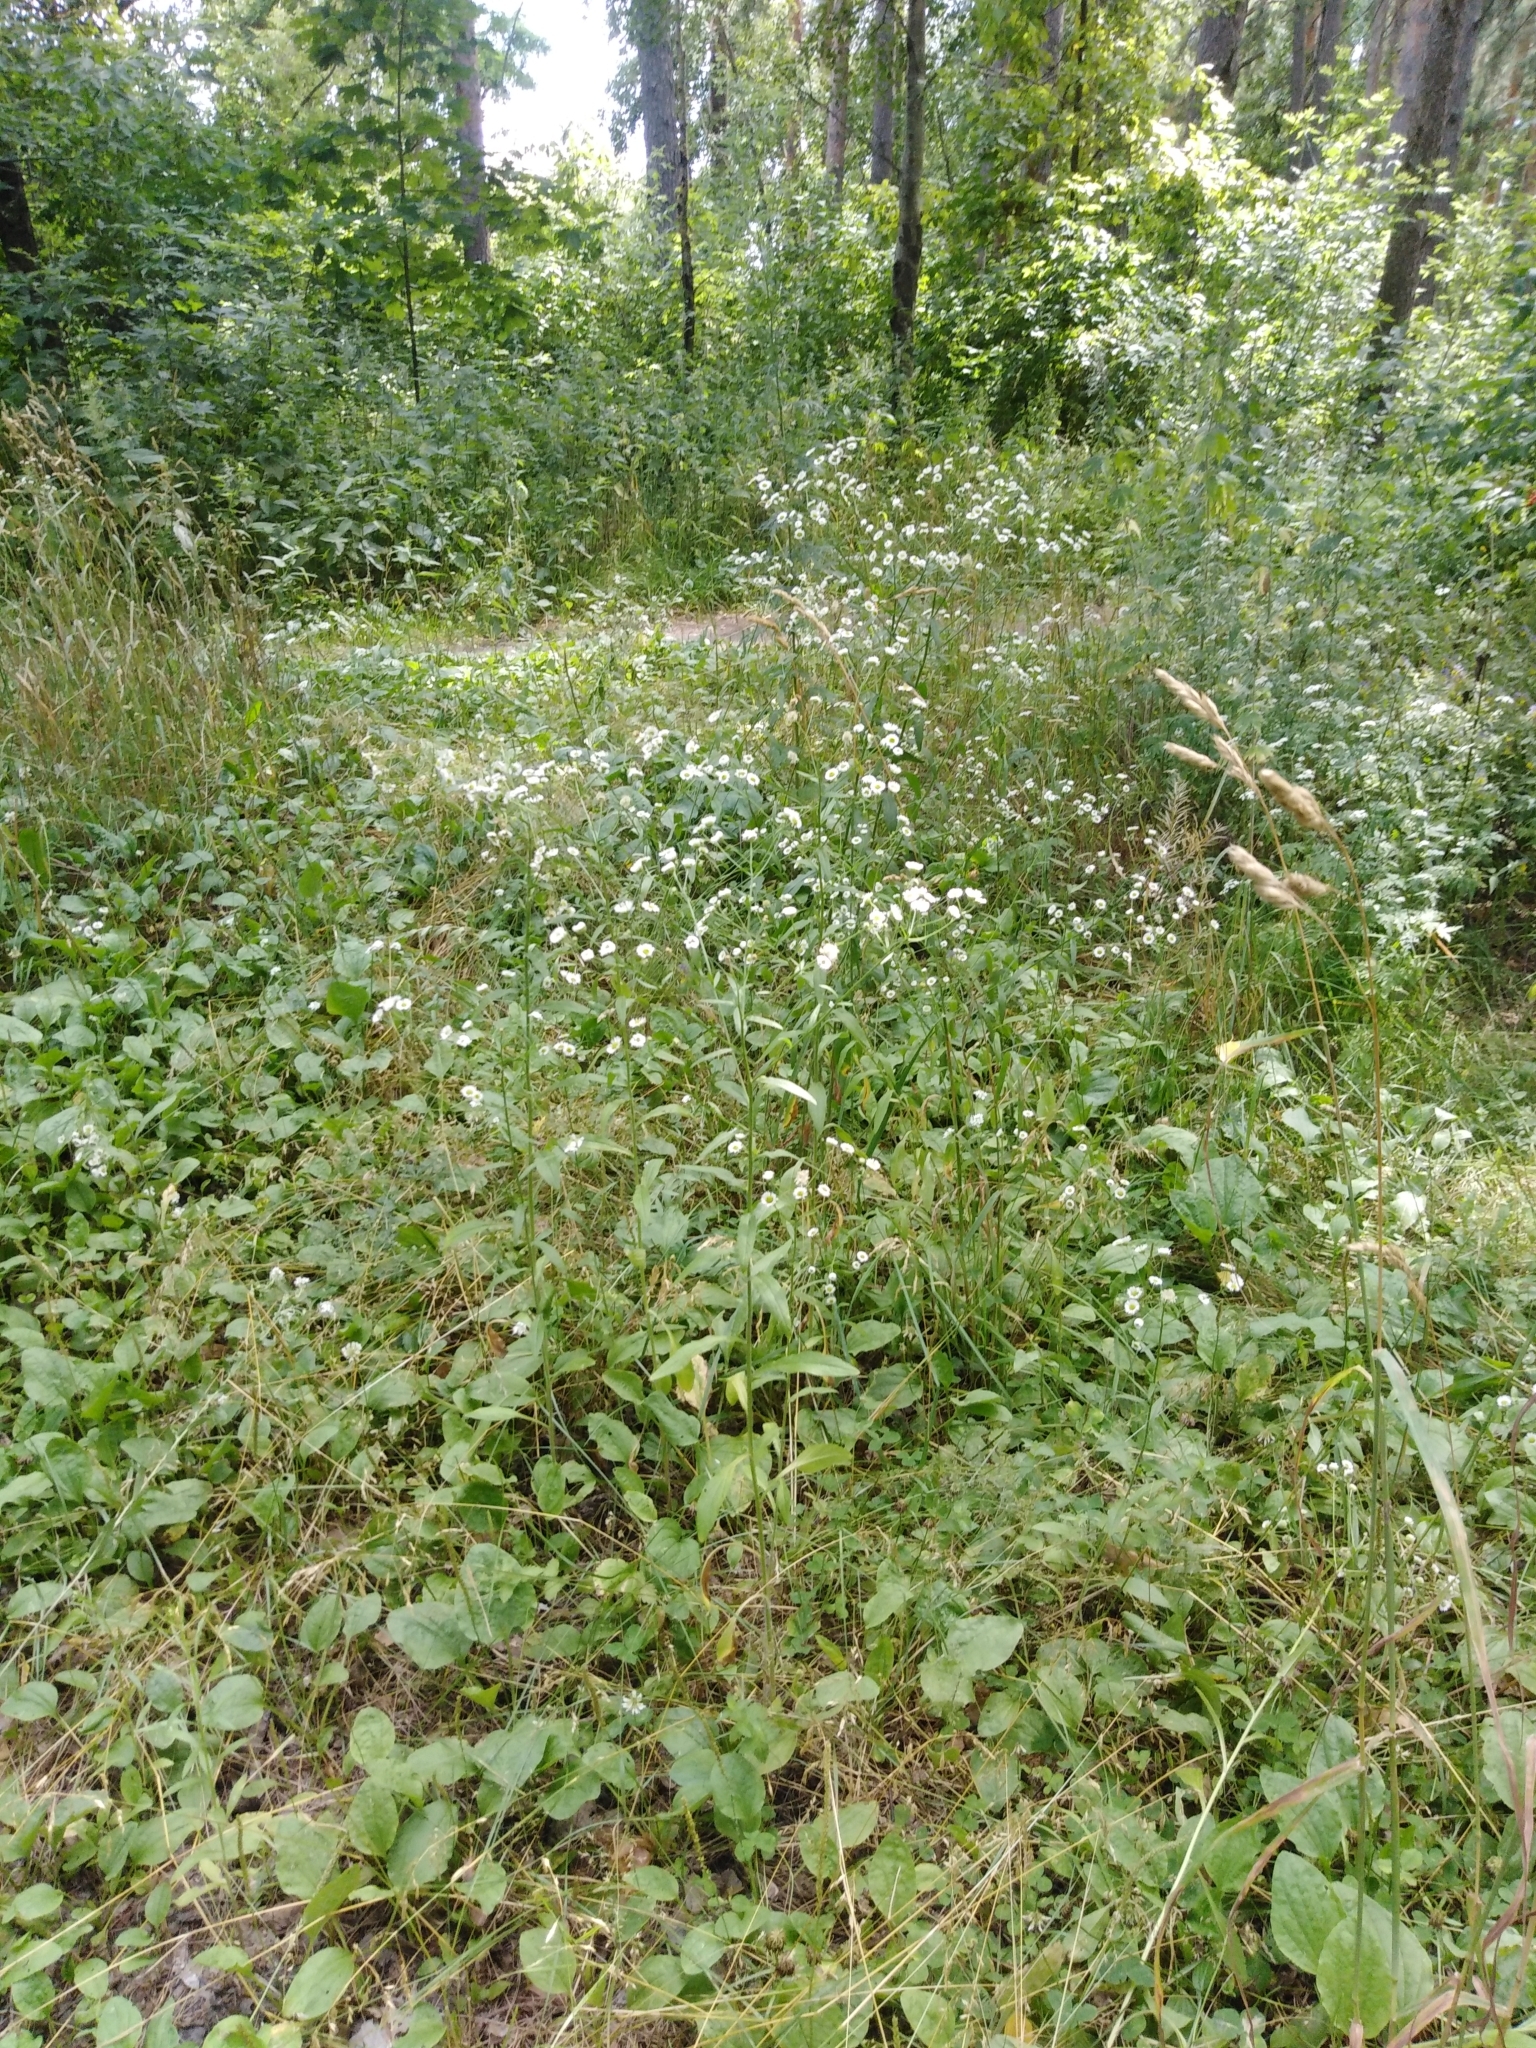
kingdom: Plantae
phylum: Tracheophyta
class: Magnoliopsida
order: Asterales
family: Asteraceae
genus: Erigeron
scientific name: Erigeron annuus
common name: Tall fleabane
